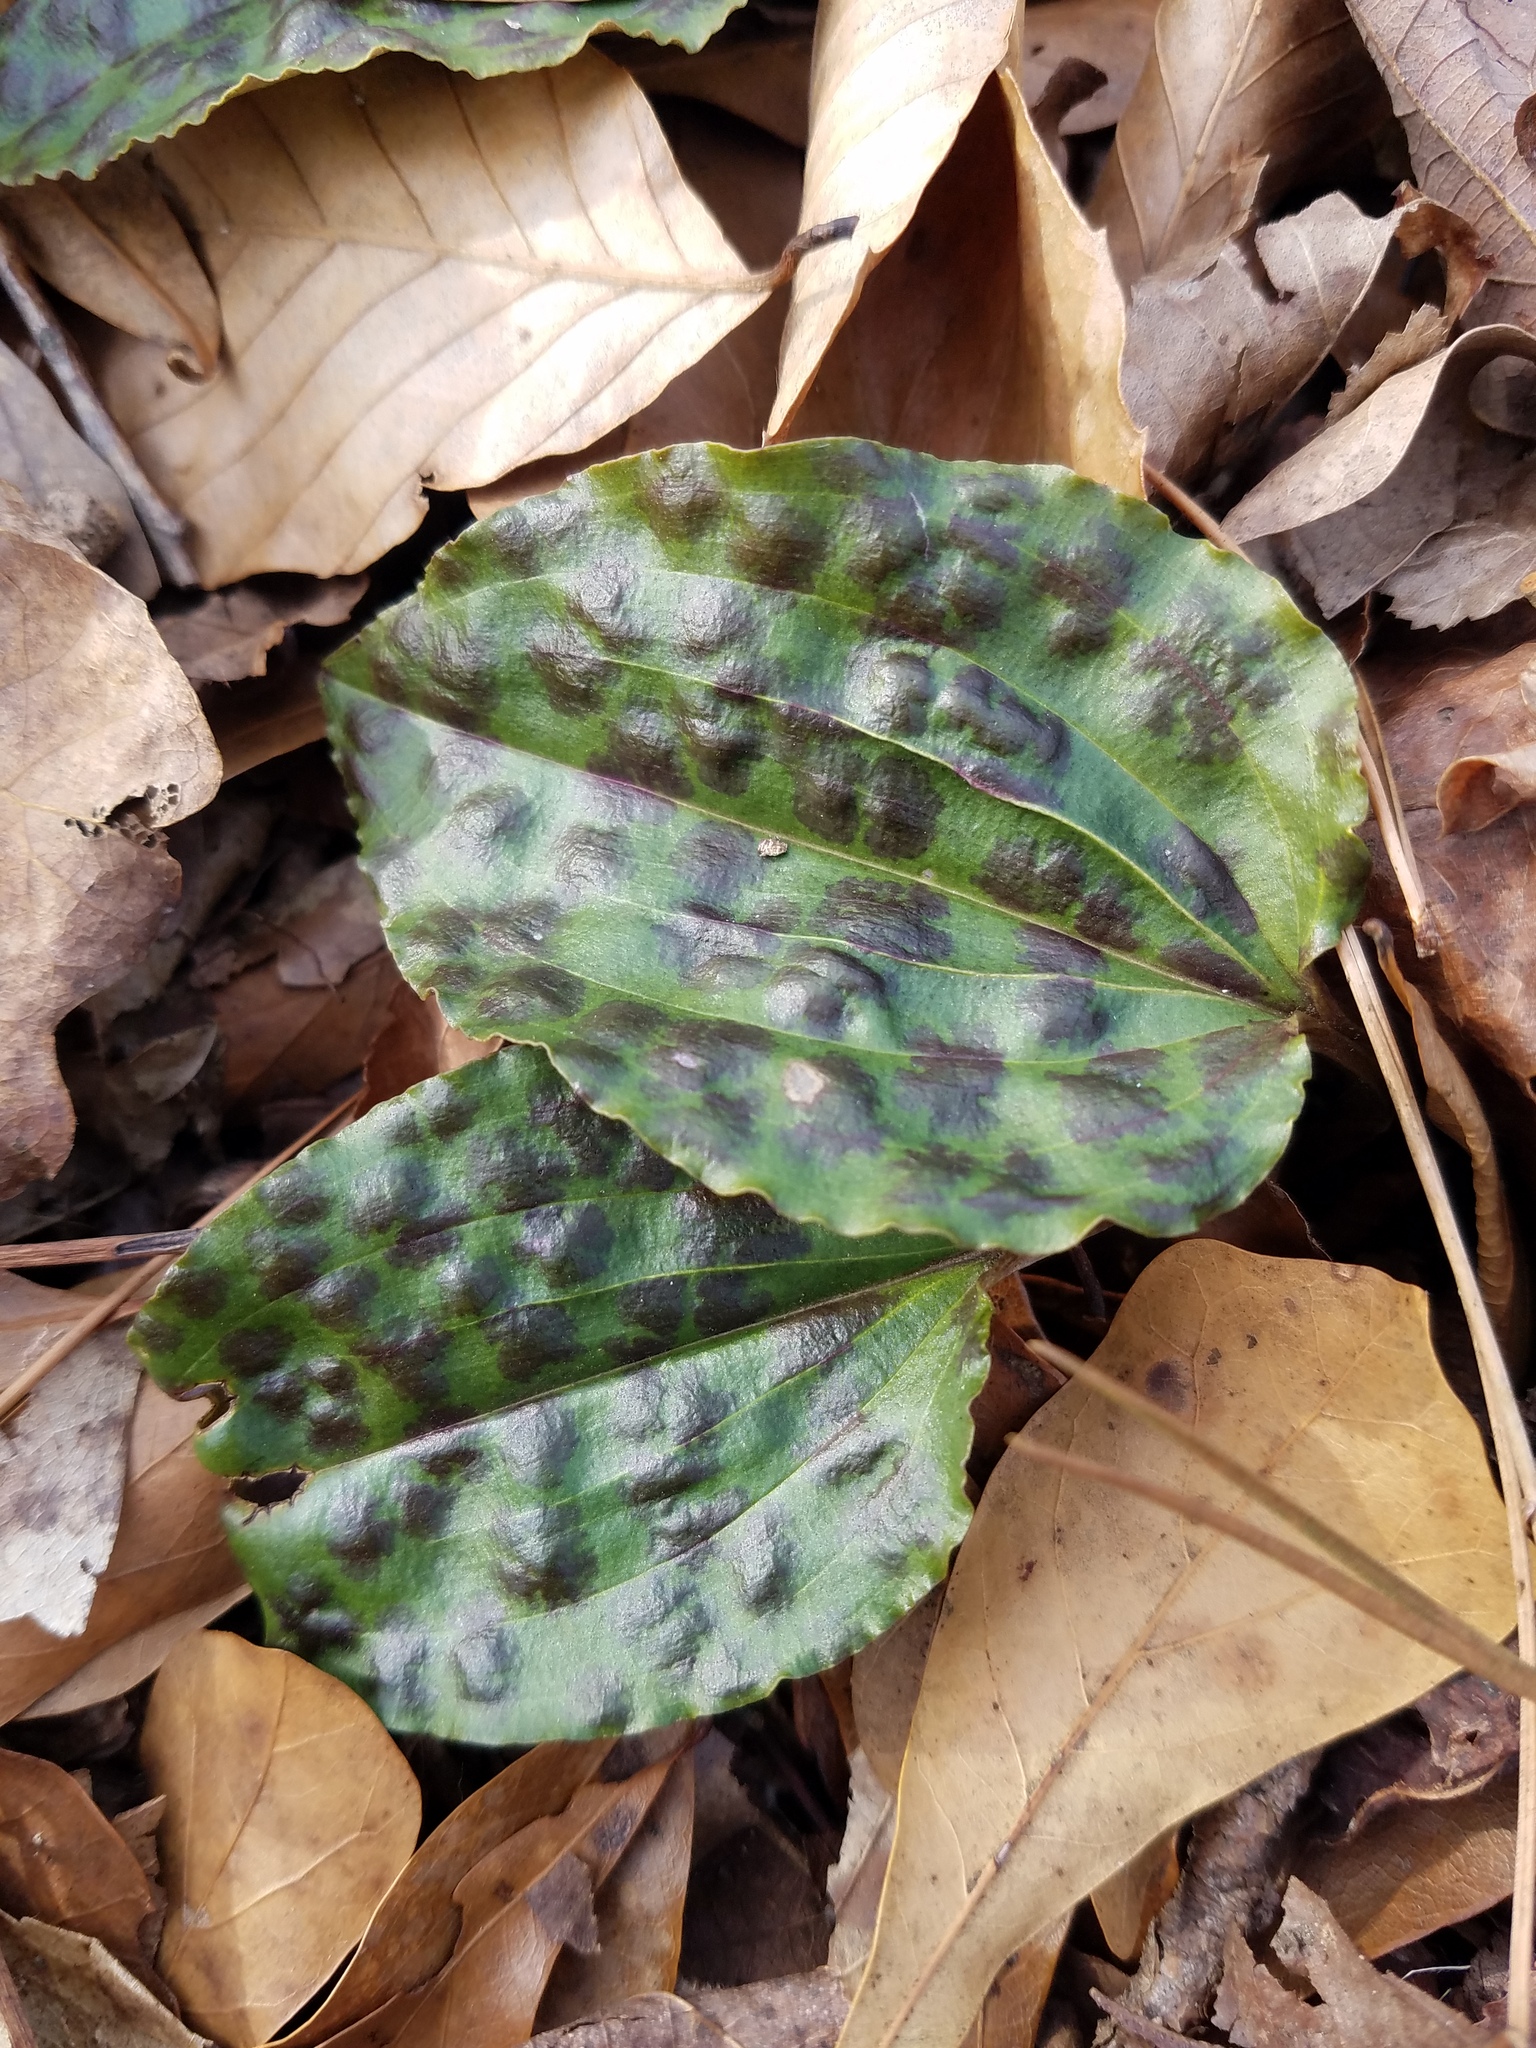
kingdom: Plantae
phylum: Tracheophyta
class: Liliopsida
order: Asparagales
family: Orchidaceae
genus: Tipularia
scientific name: Tipularia discolor
